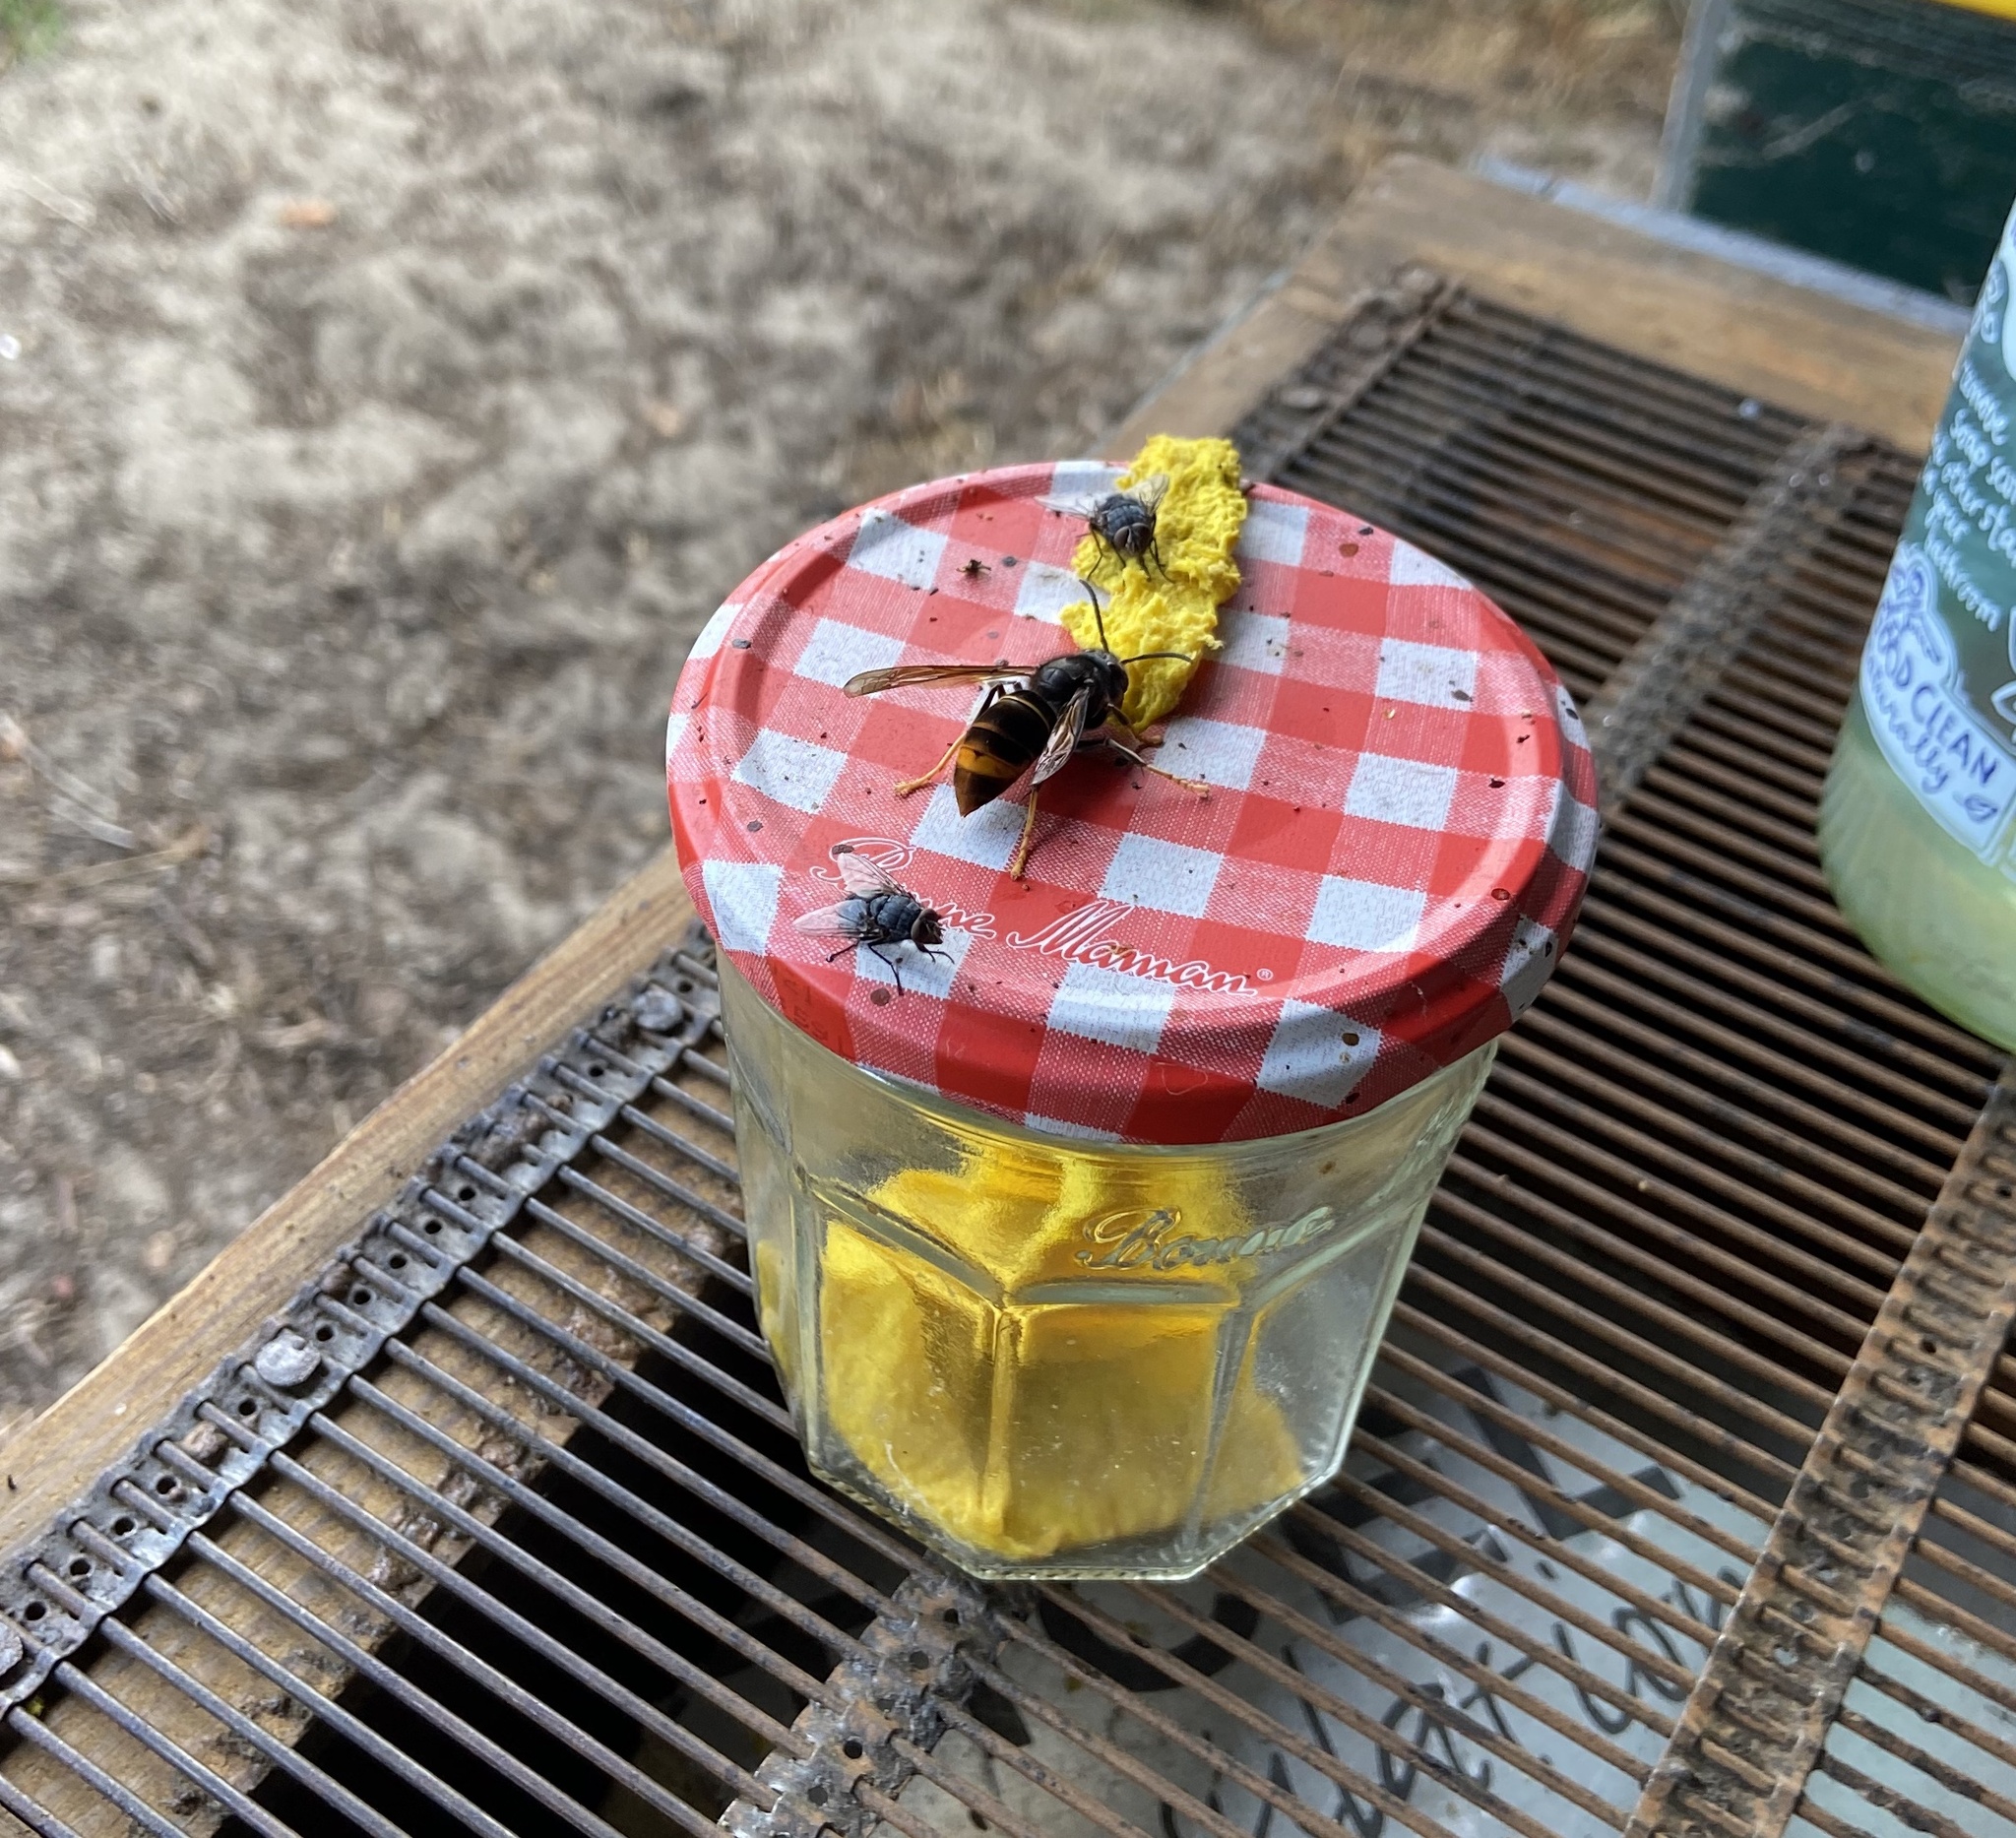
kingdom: Animalia
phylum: Arthropoda
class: Insecta
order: Hymenoptera
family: Vespidae
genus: Vespa
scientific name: Vespa velutina
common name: Asian hornet
